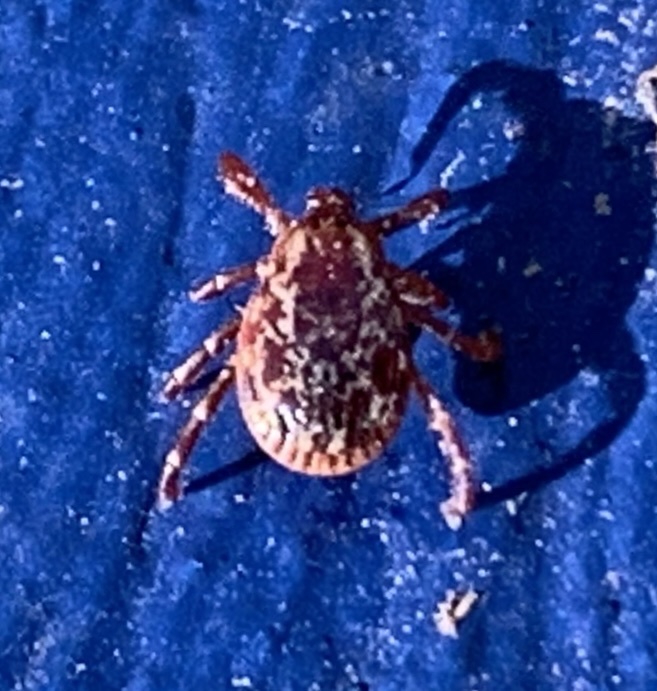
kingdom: Animalia
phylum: Arthropoda
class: Arachnida
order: Ixodida
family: Ixodidae
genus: Dermacentor
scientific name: Dermacentor variabilis
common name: American dog tick
